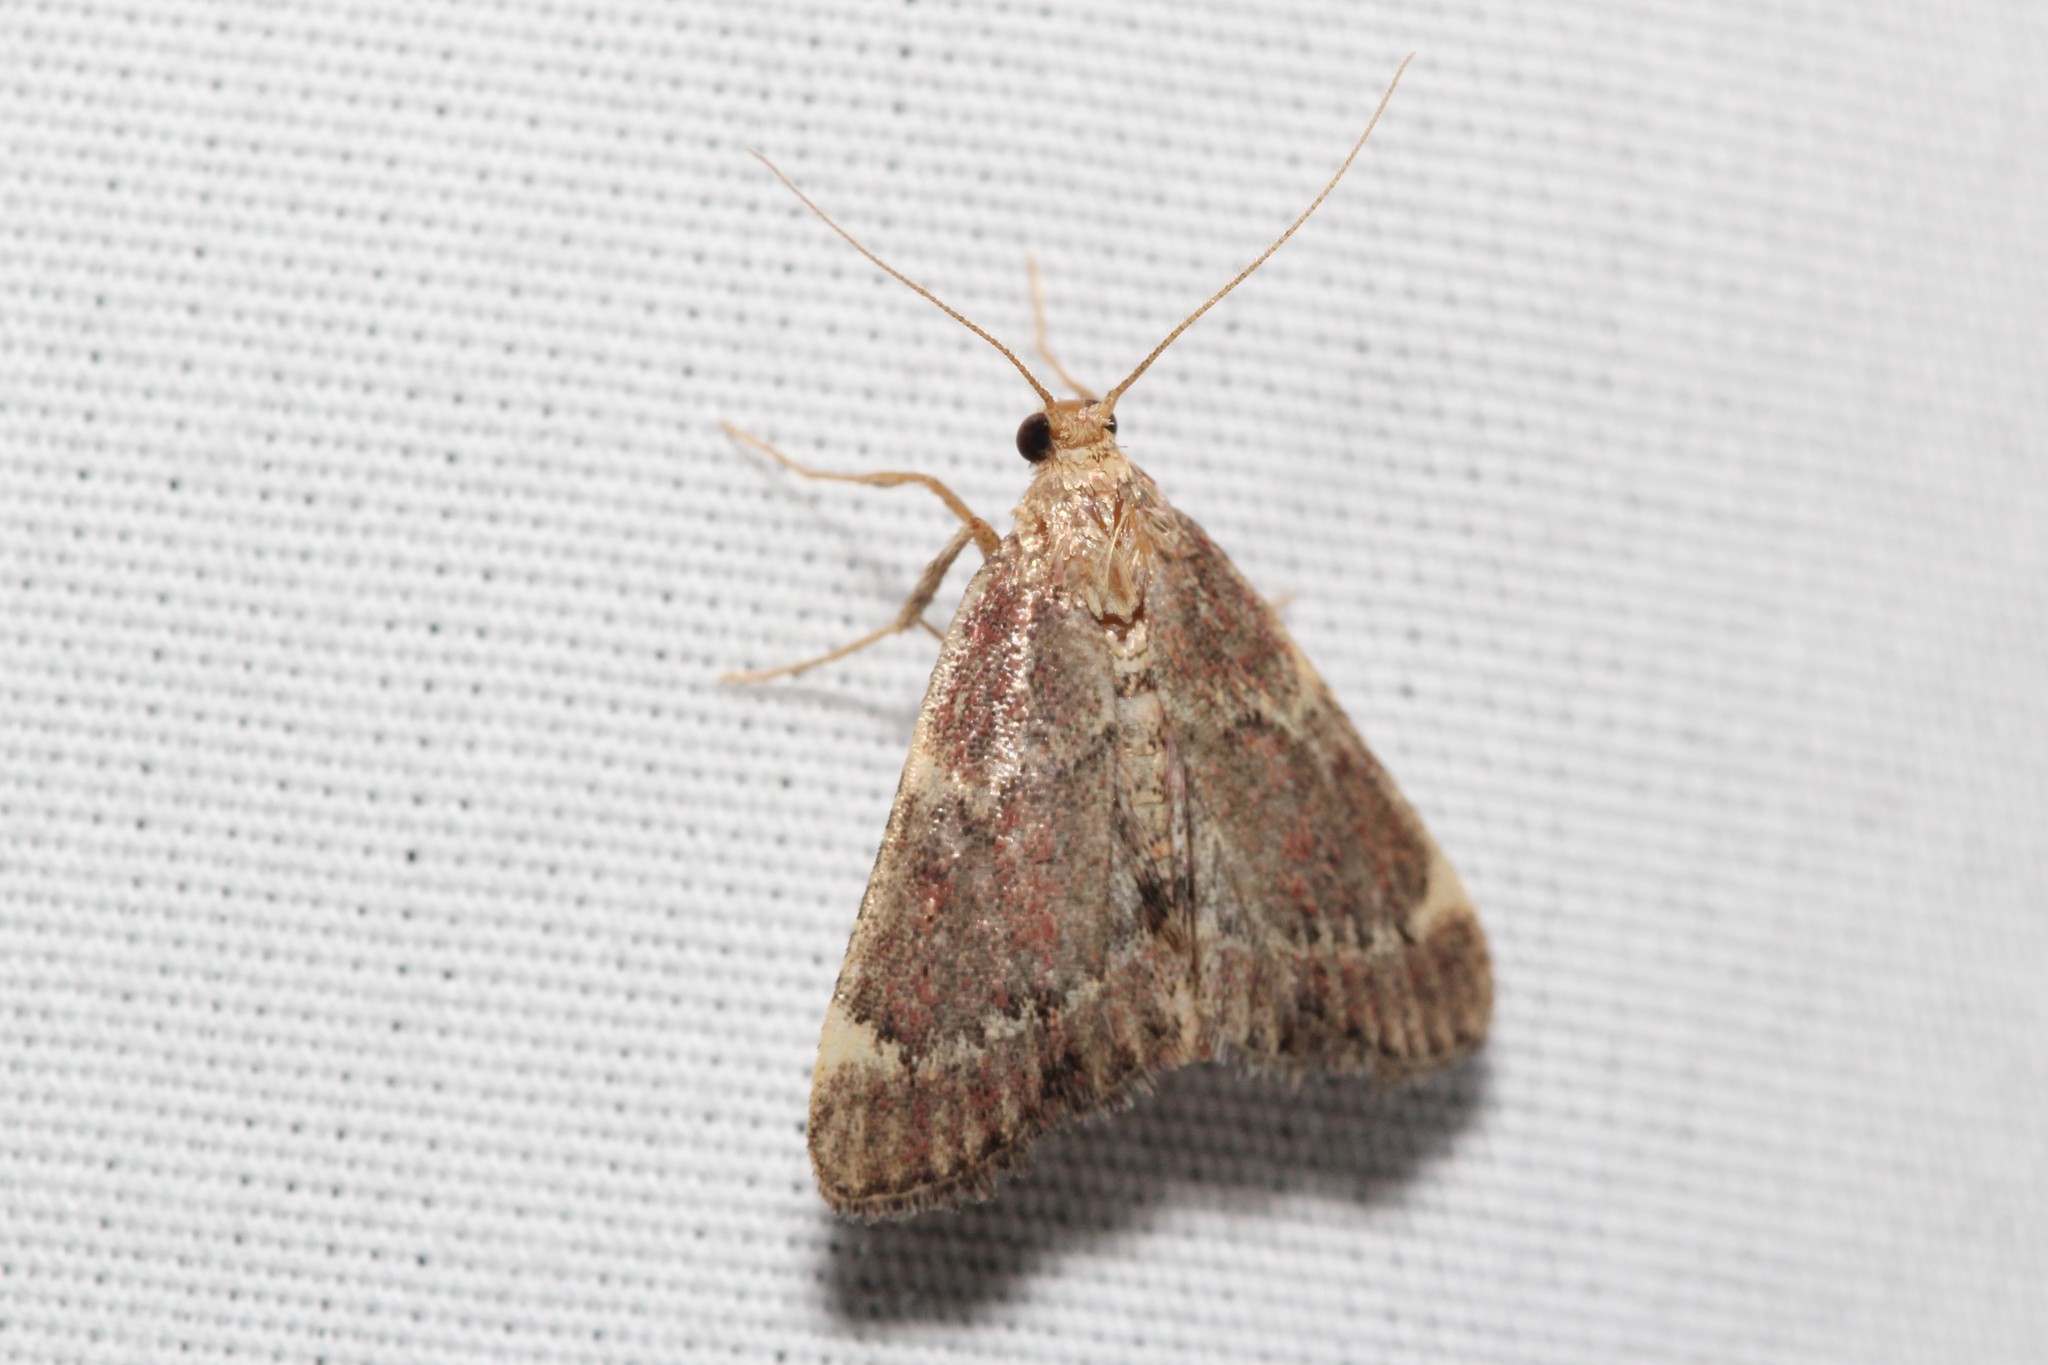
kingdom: Animalia
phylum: Arthropoda
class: Insecta
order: Lepidoptera
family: Pyralidae
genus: Hypsopygia
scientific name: Hypsopygia intermedialis
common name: Red-shawled moth
